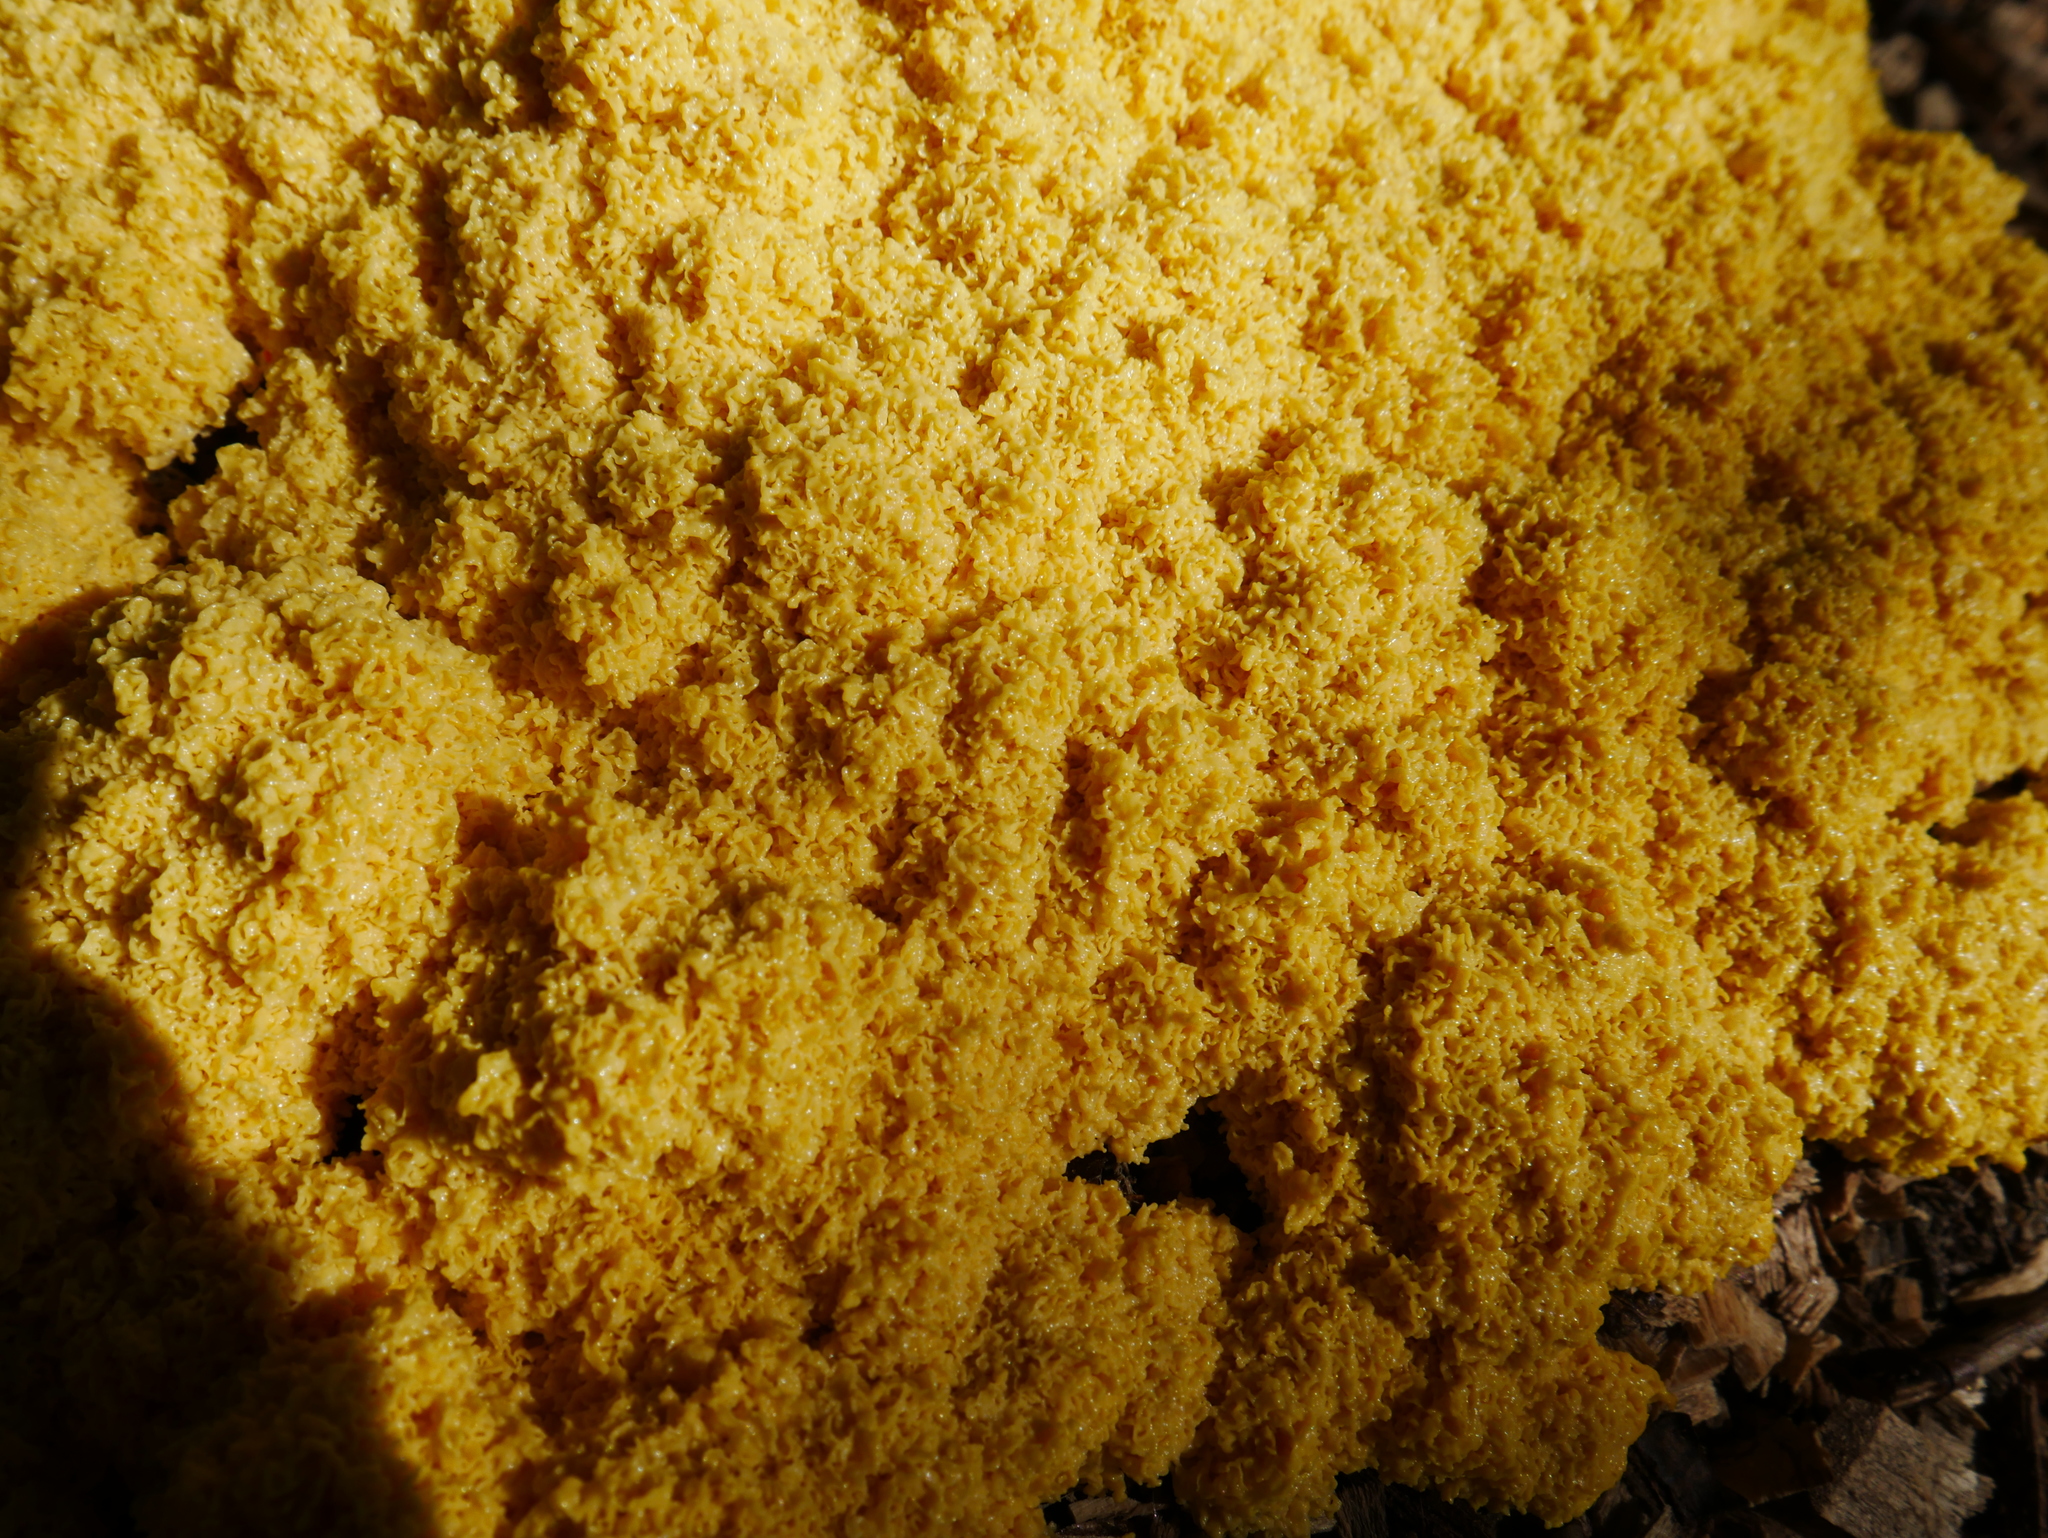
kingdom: Protozoa
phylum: Mycetozoa
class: Myxomycetes
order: Physarales
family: Physaraceae
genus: Fuligo
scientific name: Fuligo septica
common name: Dog vomit slime mold
